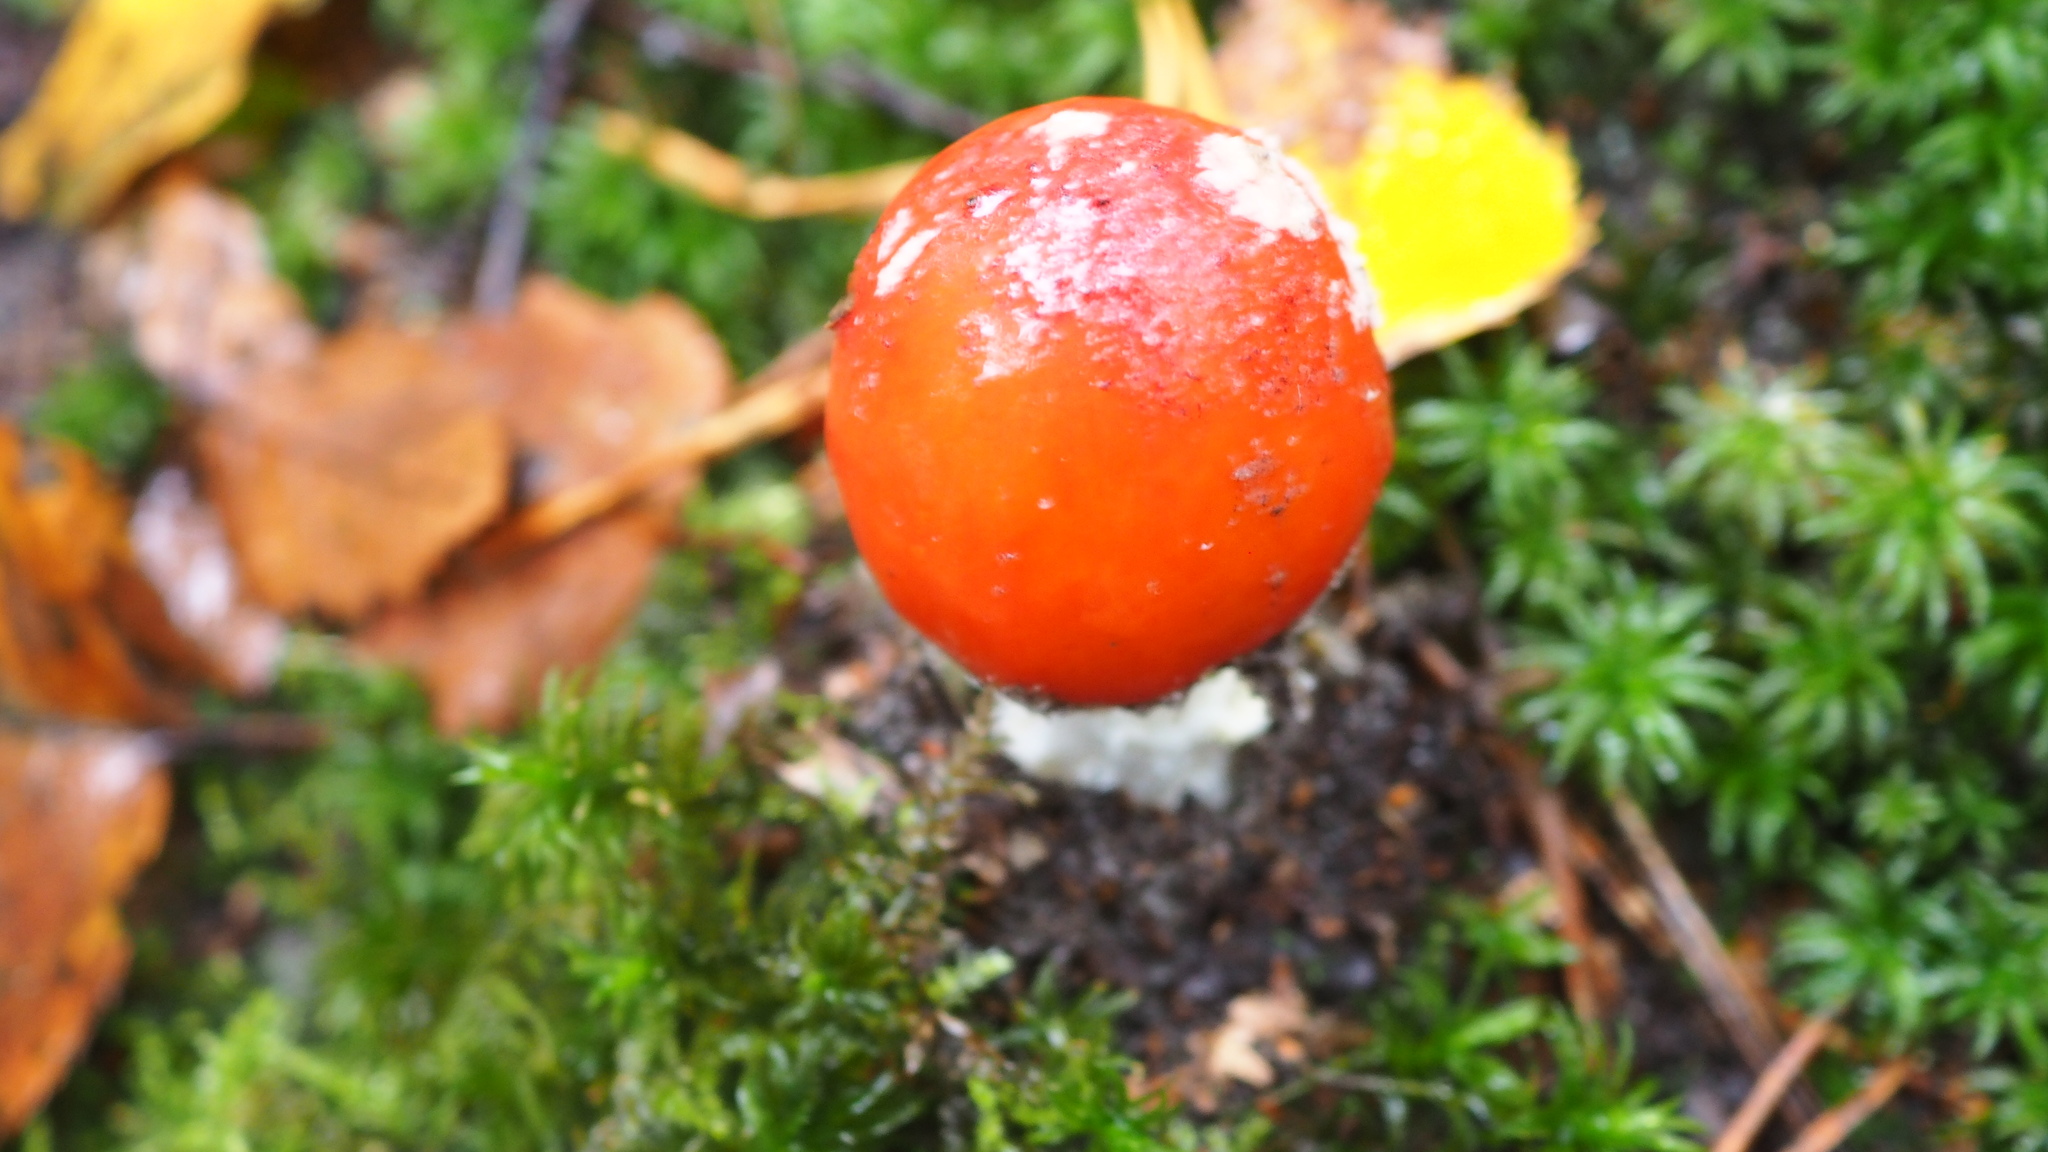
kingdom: Fungi
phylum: Basidiomycota
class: Agaricomycetes
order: Agaricales
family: Amanitaceae
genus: Amanita
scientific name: Amanita muscaria
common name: Fly agaric
